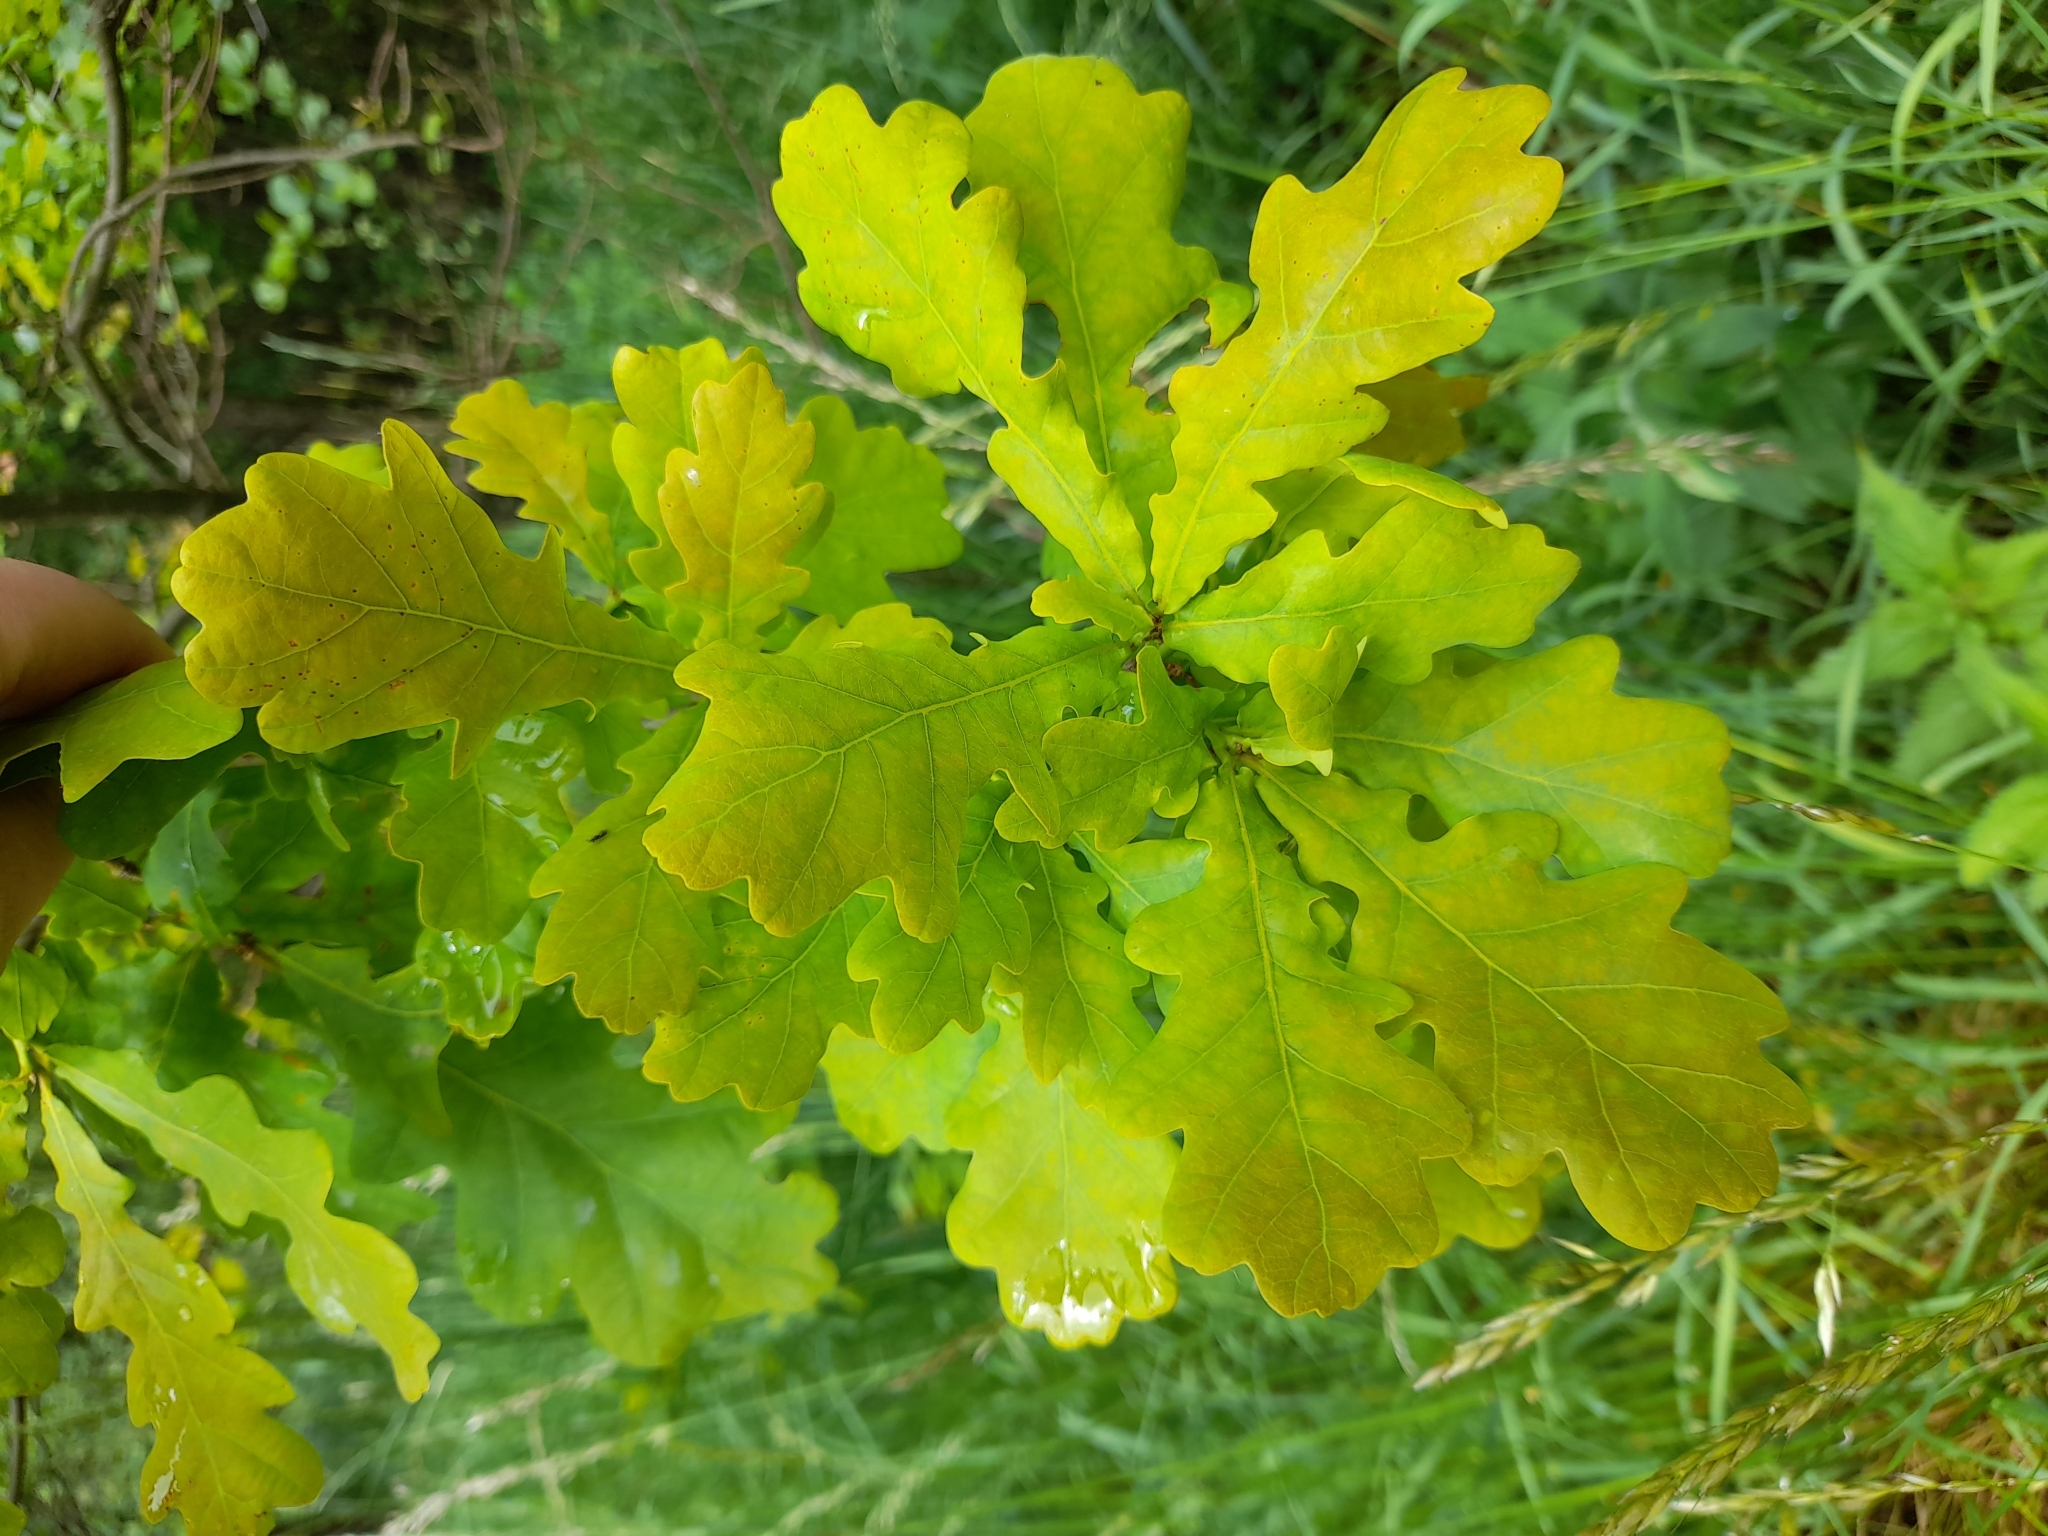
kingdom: Plantae
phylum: Tracheophyta
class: Magnoliopsida
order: Fagales
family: Fagaceae
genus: Quercus
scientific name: Quercus robur
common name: Pedunculate oak
